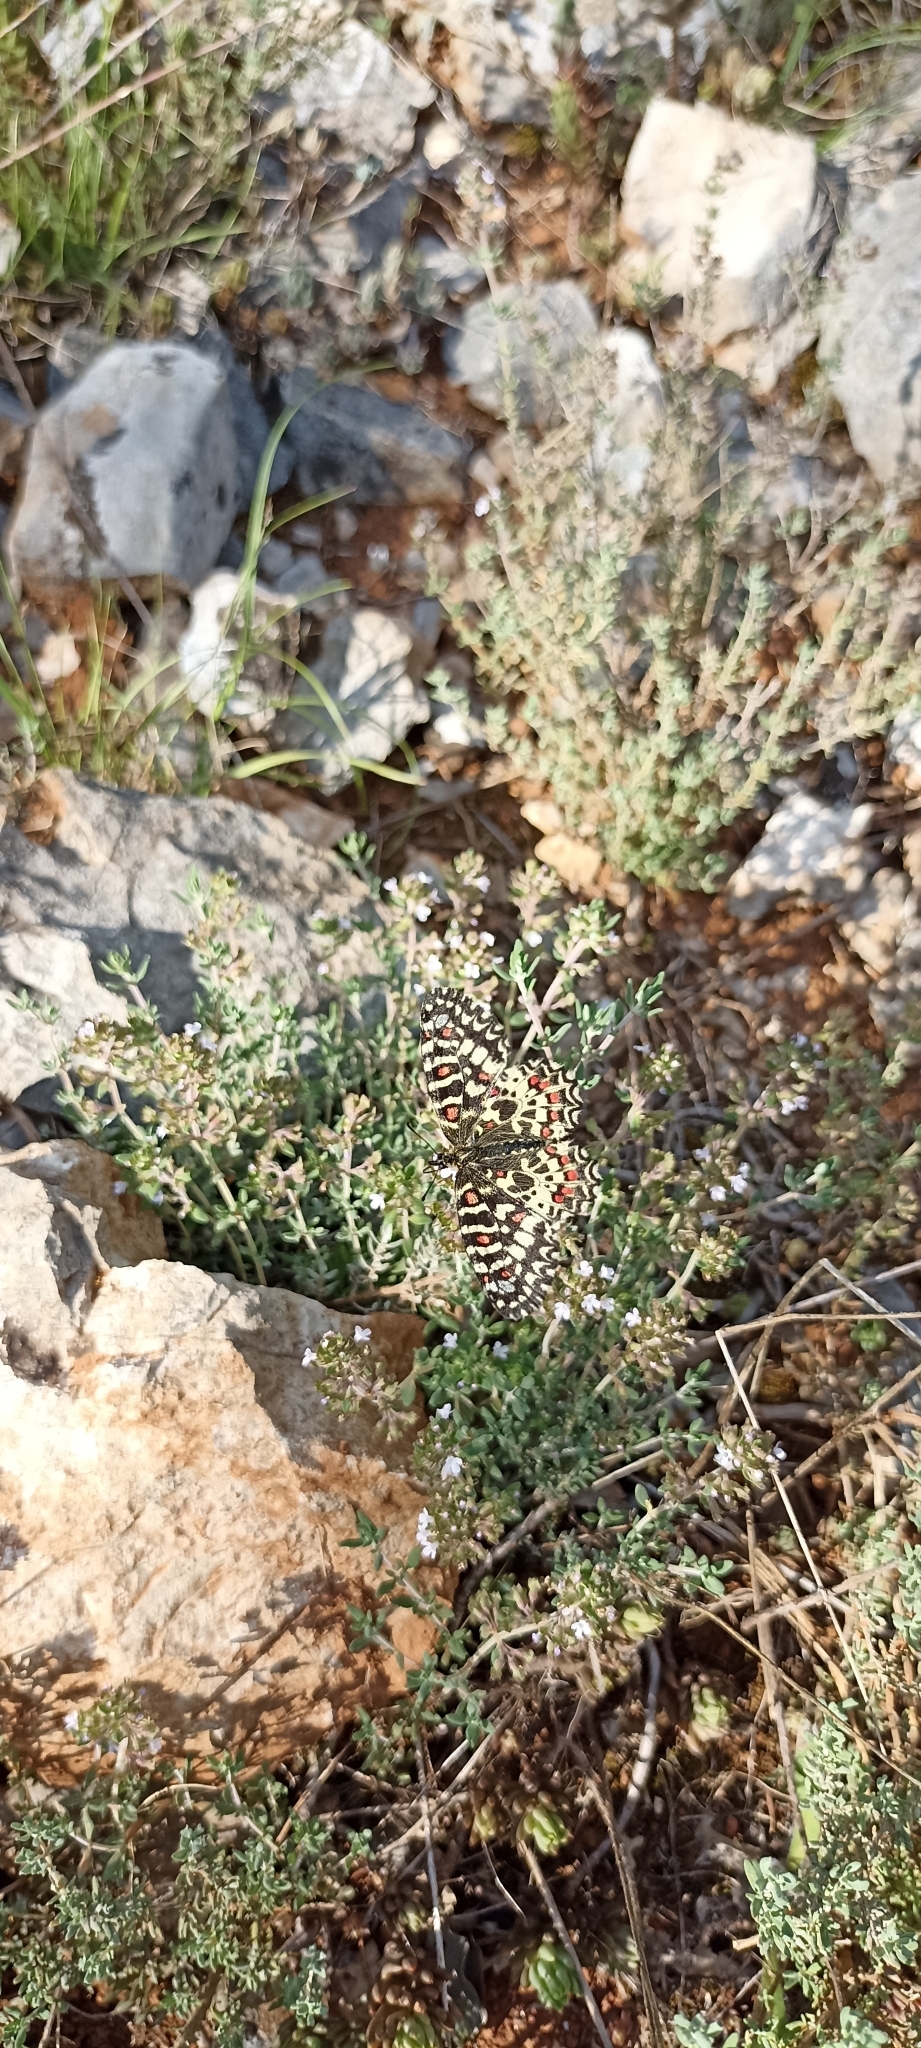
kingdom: Animalia
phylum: Arthropoda
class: Insecta
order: Lepidoptera
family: Papilionidae
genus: Zerynthia
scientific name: Zerynthia rumina
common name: Spanish festoon
